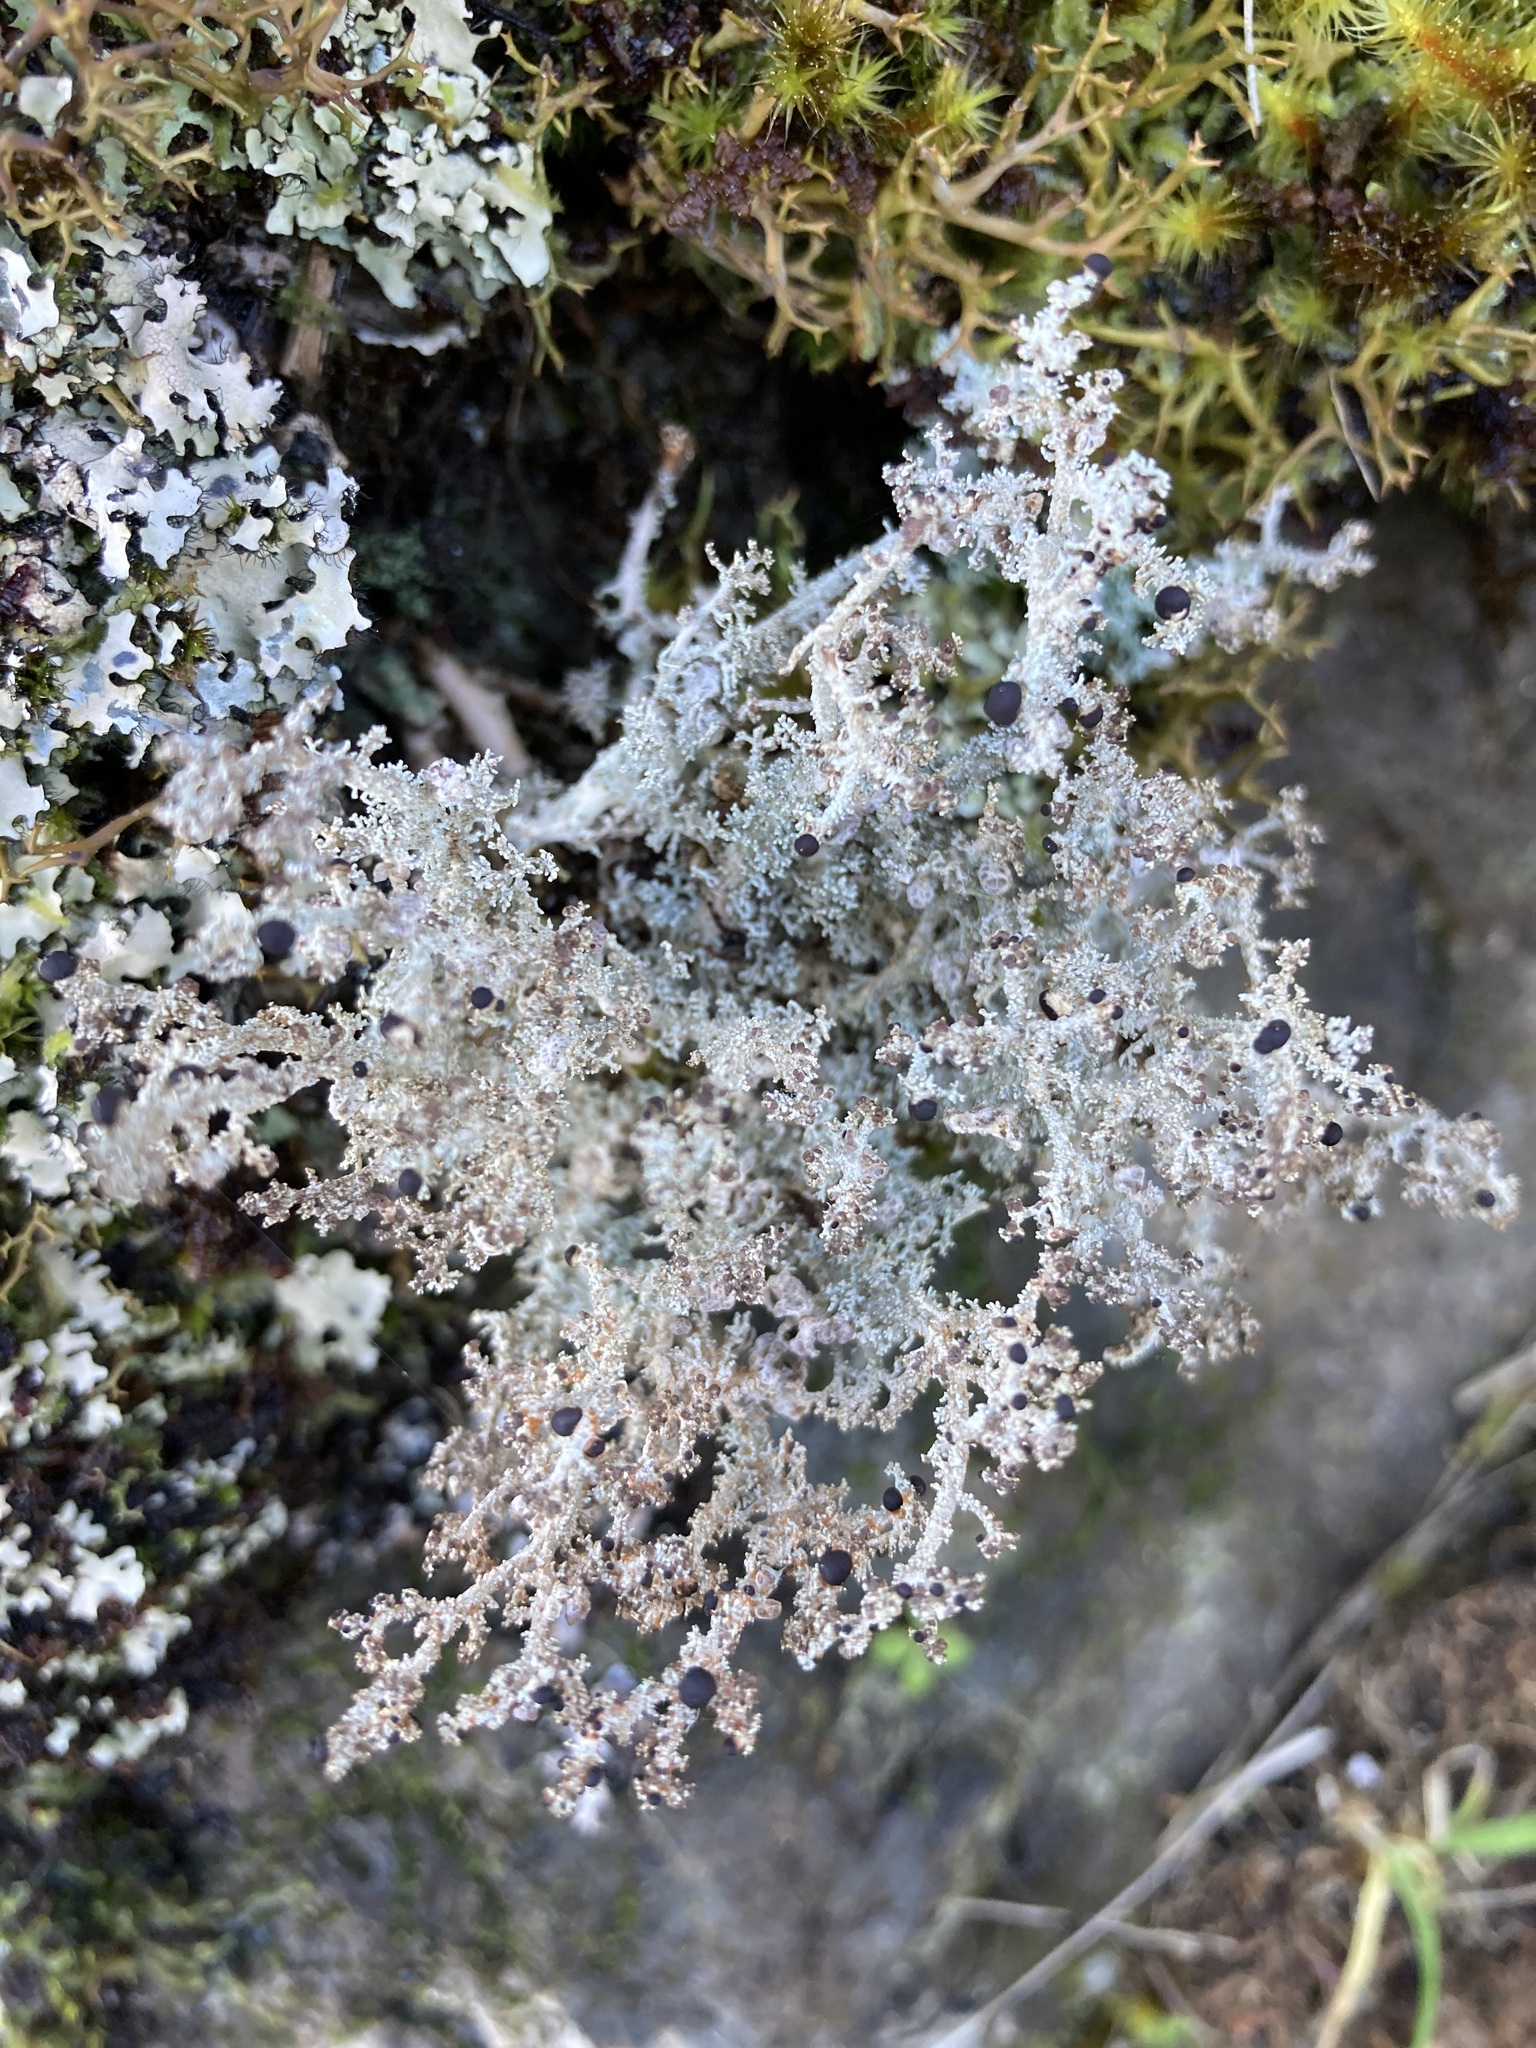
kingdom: Fungi
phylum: Ascomycota
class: Lecanoromycetes
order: Lecanorales
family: Stereocaulaceae
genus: Stereocaulon
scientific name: Stereocaulon ramulosum
